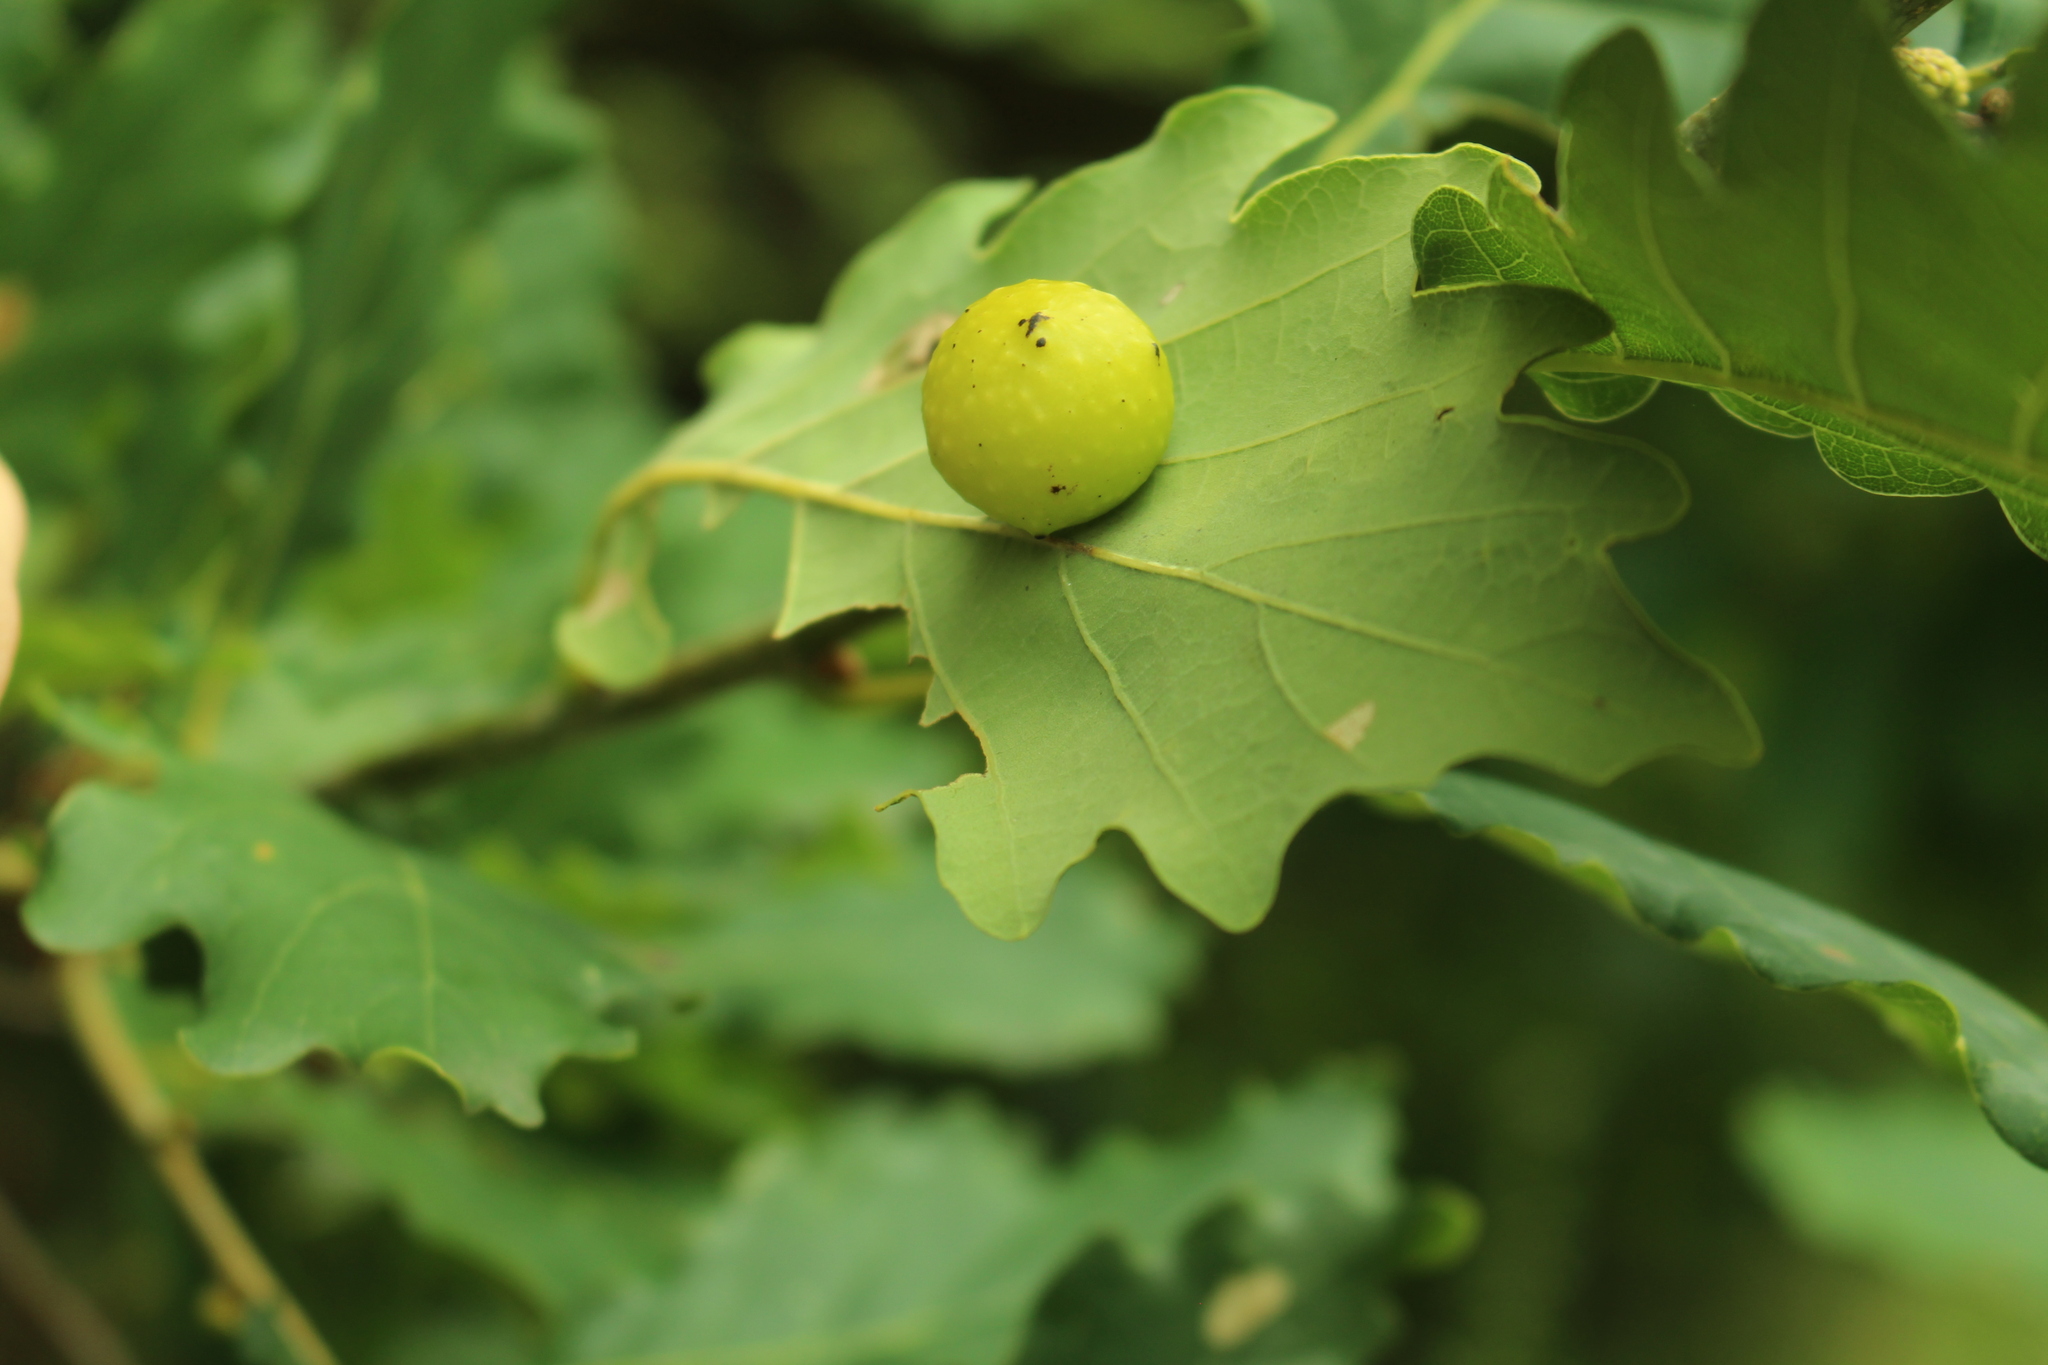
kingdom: Animalia
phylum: Arthropoda
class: Insecta
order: Hymenoptera
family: Cynipidae
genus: Cynips
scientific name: Cynips quercusfolii
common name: Cherry gall
